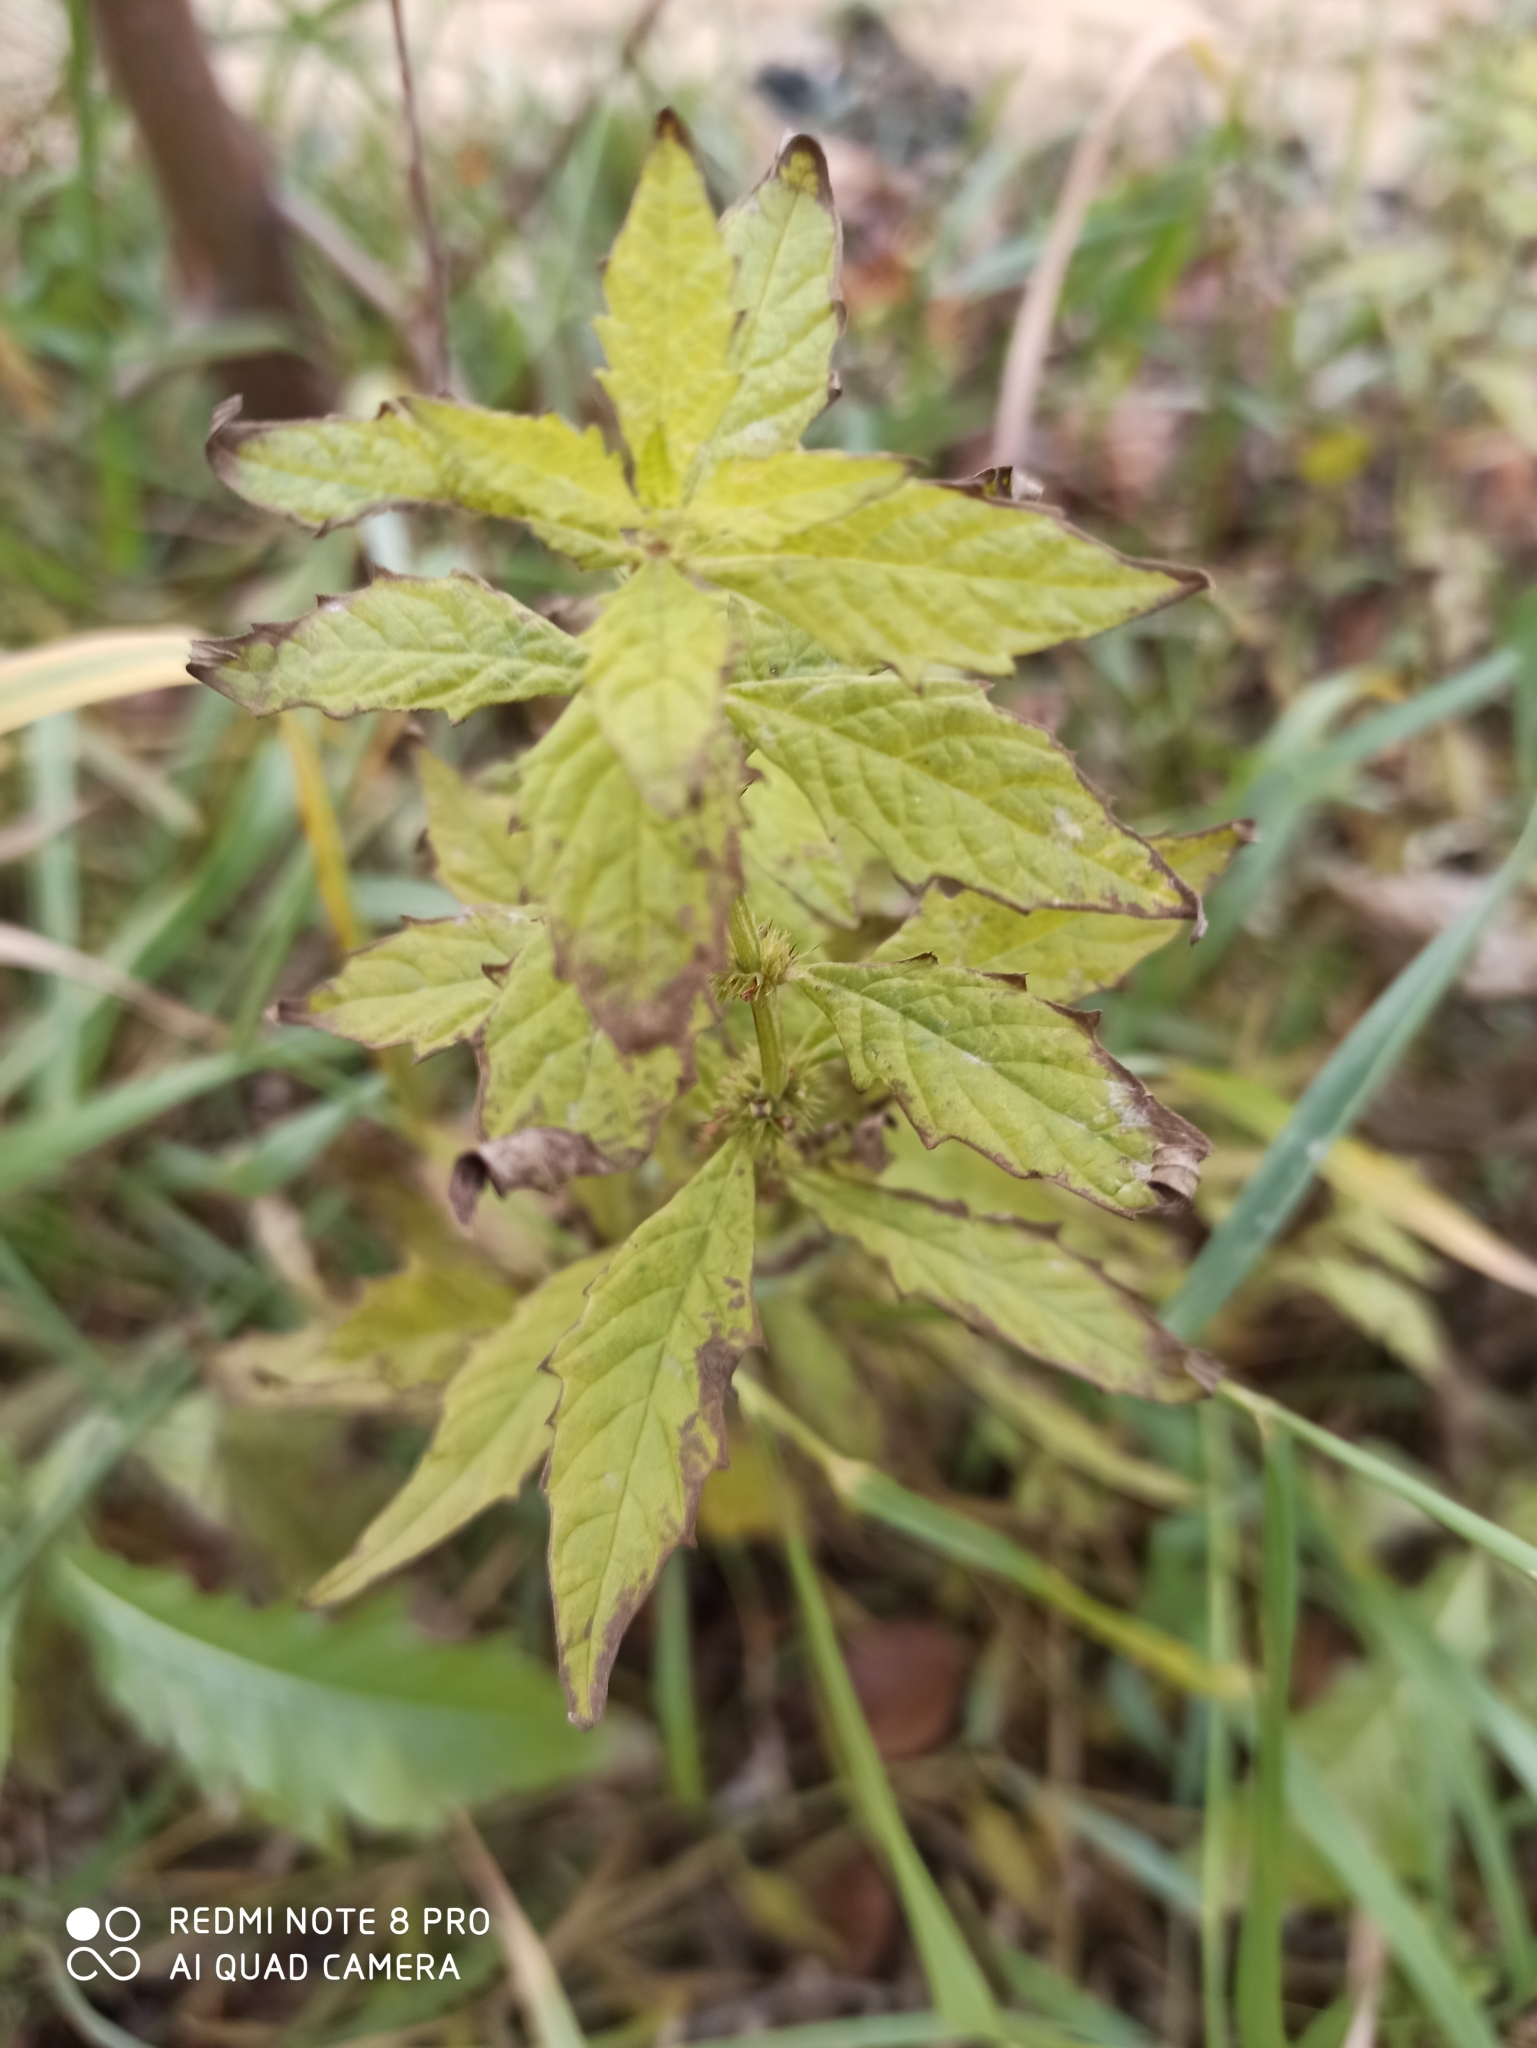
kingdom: Plantae
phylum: Tracheophyta
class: Magnoliopsida
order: Lamiales
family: Lamiaceae
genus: Lycopus
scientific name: Lycopus europaeus
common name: European bugleweed
